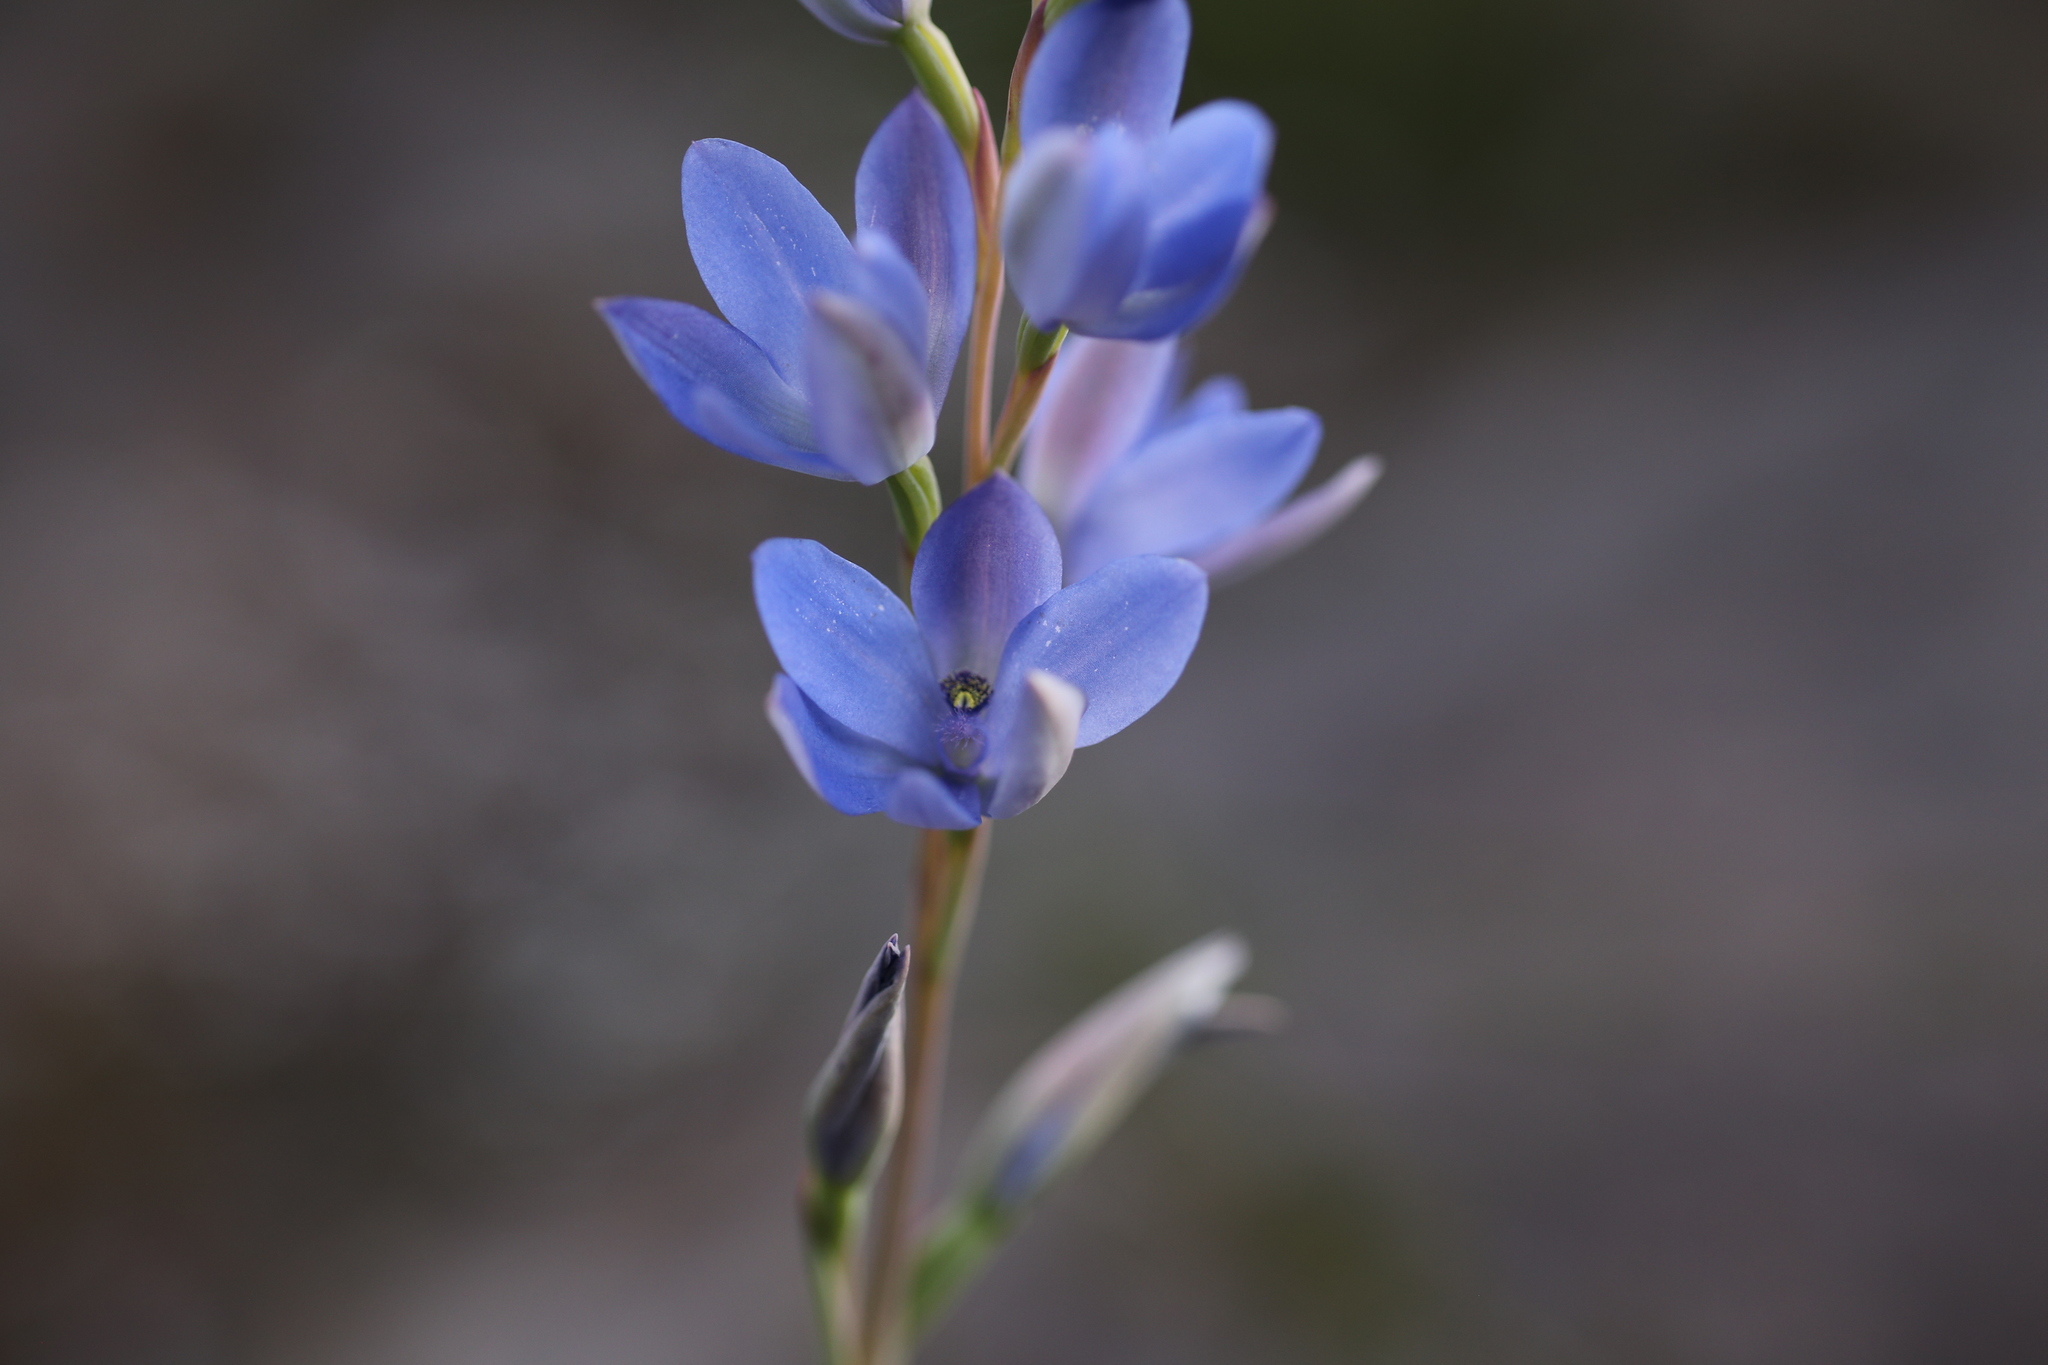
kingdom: Plantae
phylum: Tracheophyta
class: Liliopsida
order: Asparagales
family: Orchidaceae
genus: Thelymitra
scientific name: Thelymitra crinita
